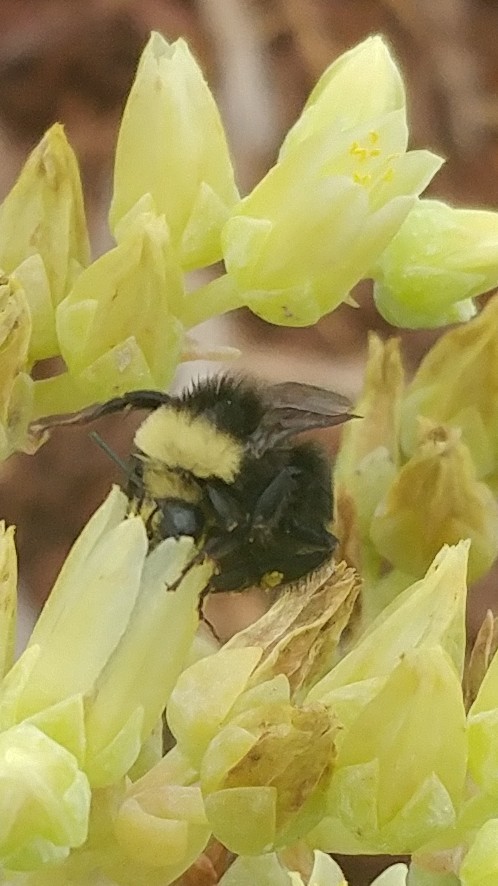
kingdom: Animalia
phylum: Arthropoda
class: Insecta
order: Hymenoptera
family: Apidae
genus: Bombus
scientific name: Bombus vosnesenskii
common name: Vosnesensky bumble bee
